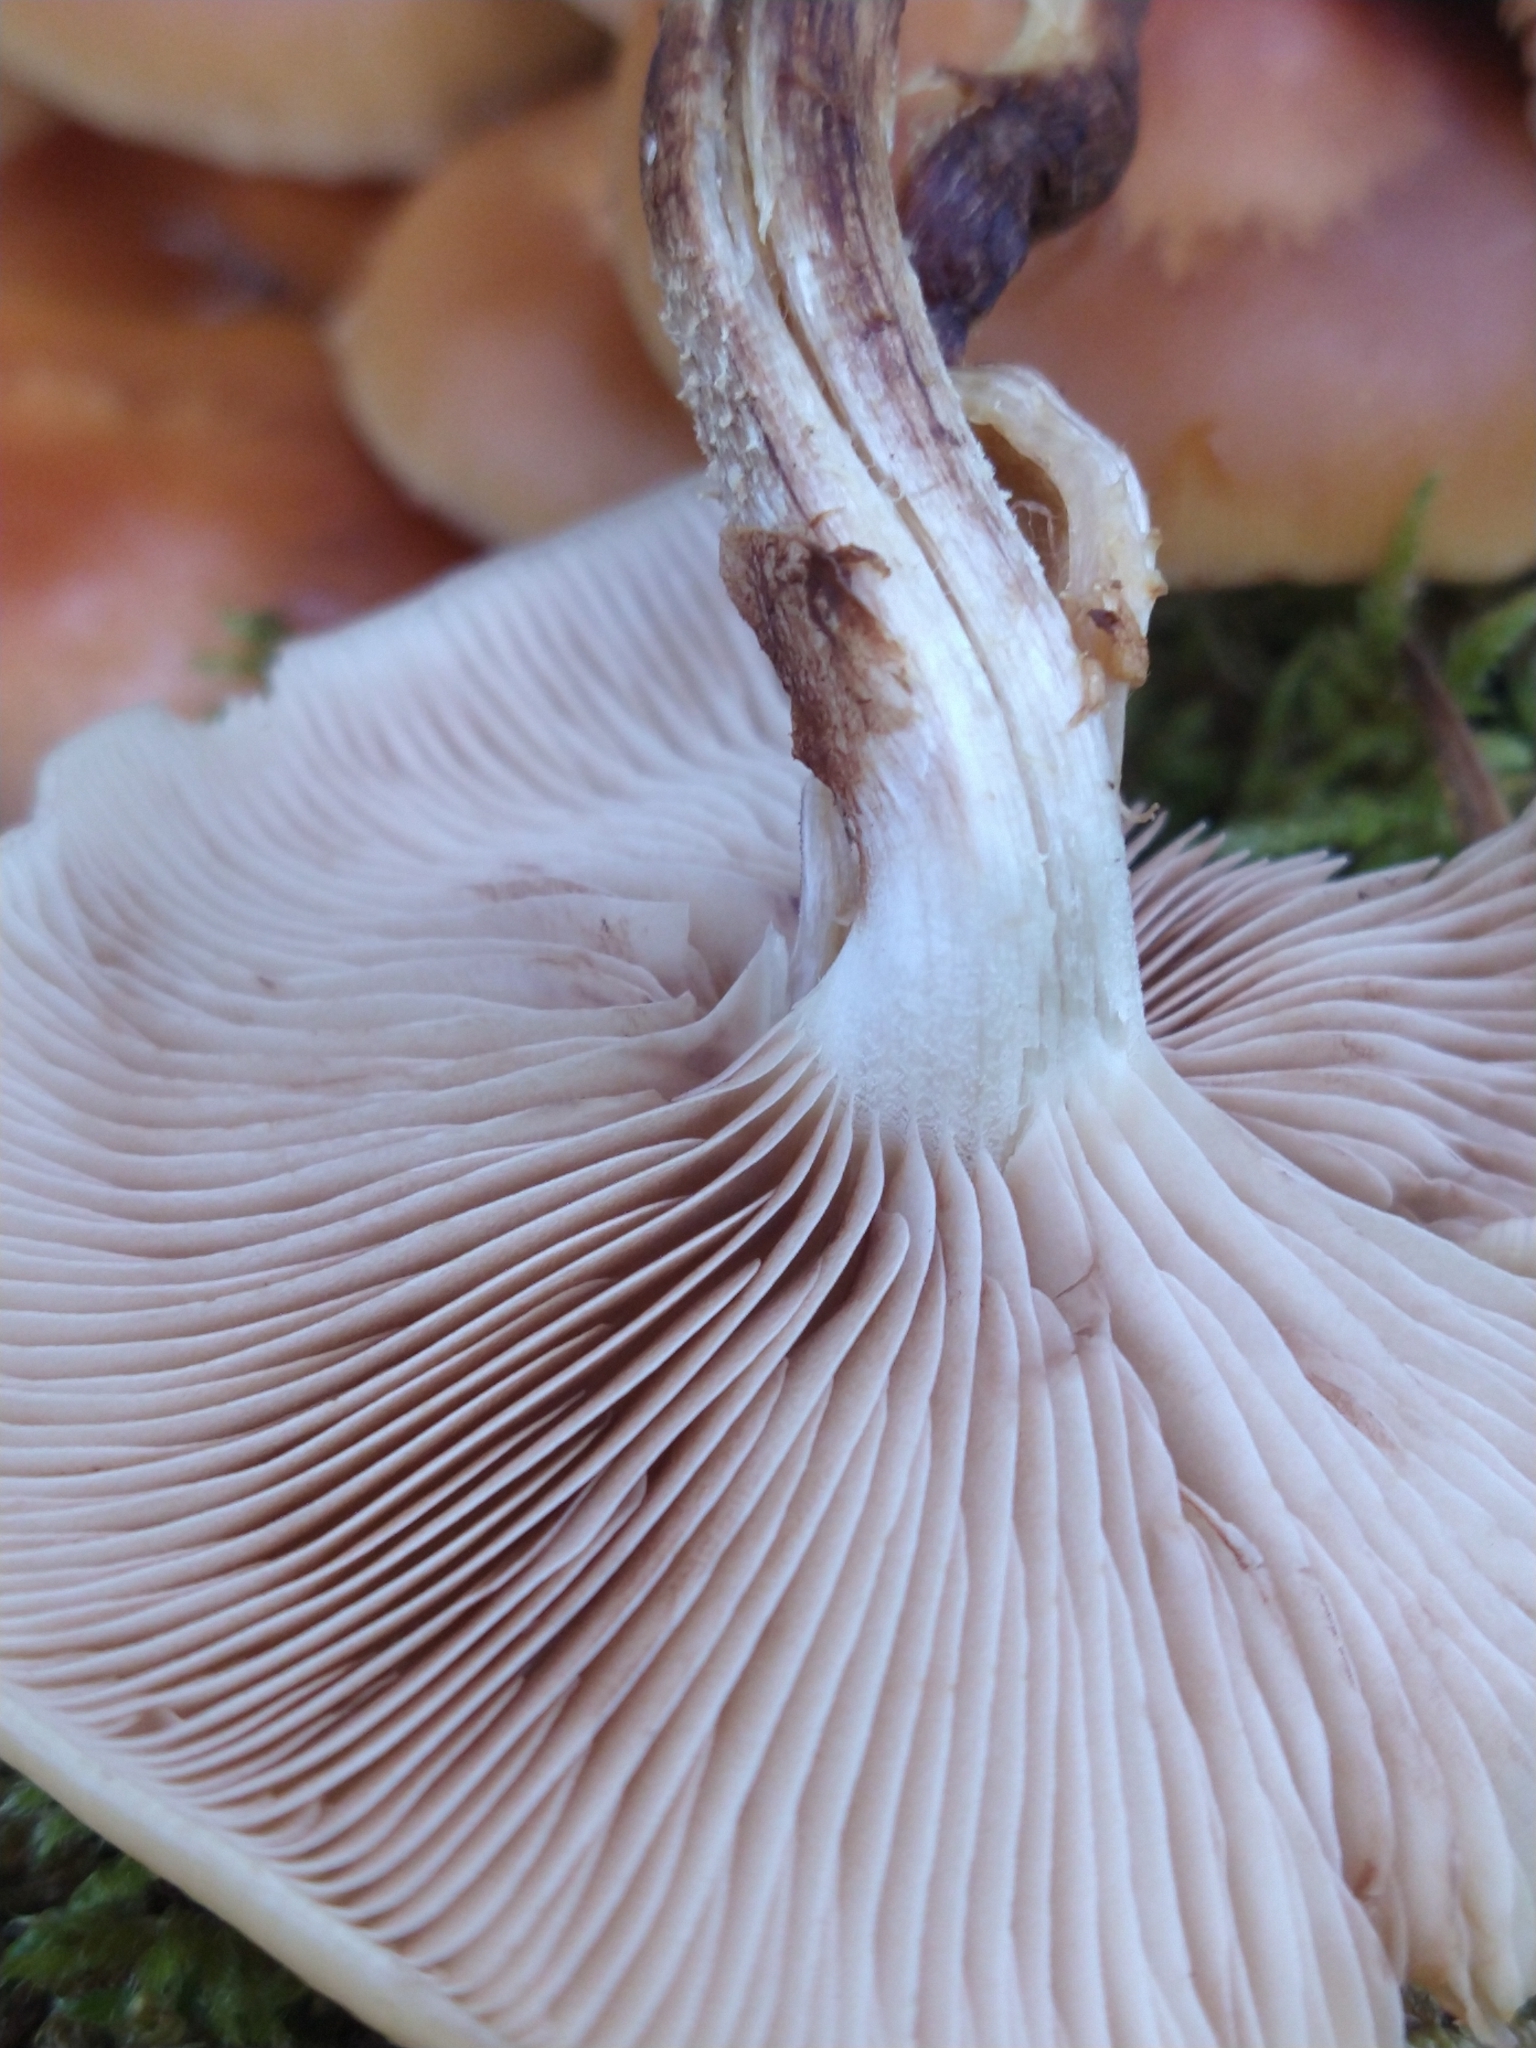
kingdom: Fungi
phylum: Basidiomycota
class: Agaricomycetes
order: Agaricales
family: Strophariaceae
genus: Kuehneromyces
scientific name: Kuehneromyces mutabilis
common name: Sheathed woodtuft
